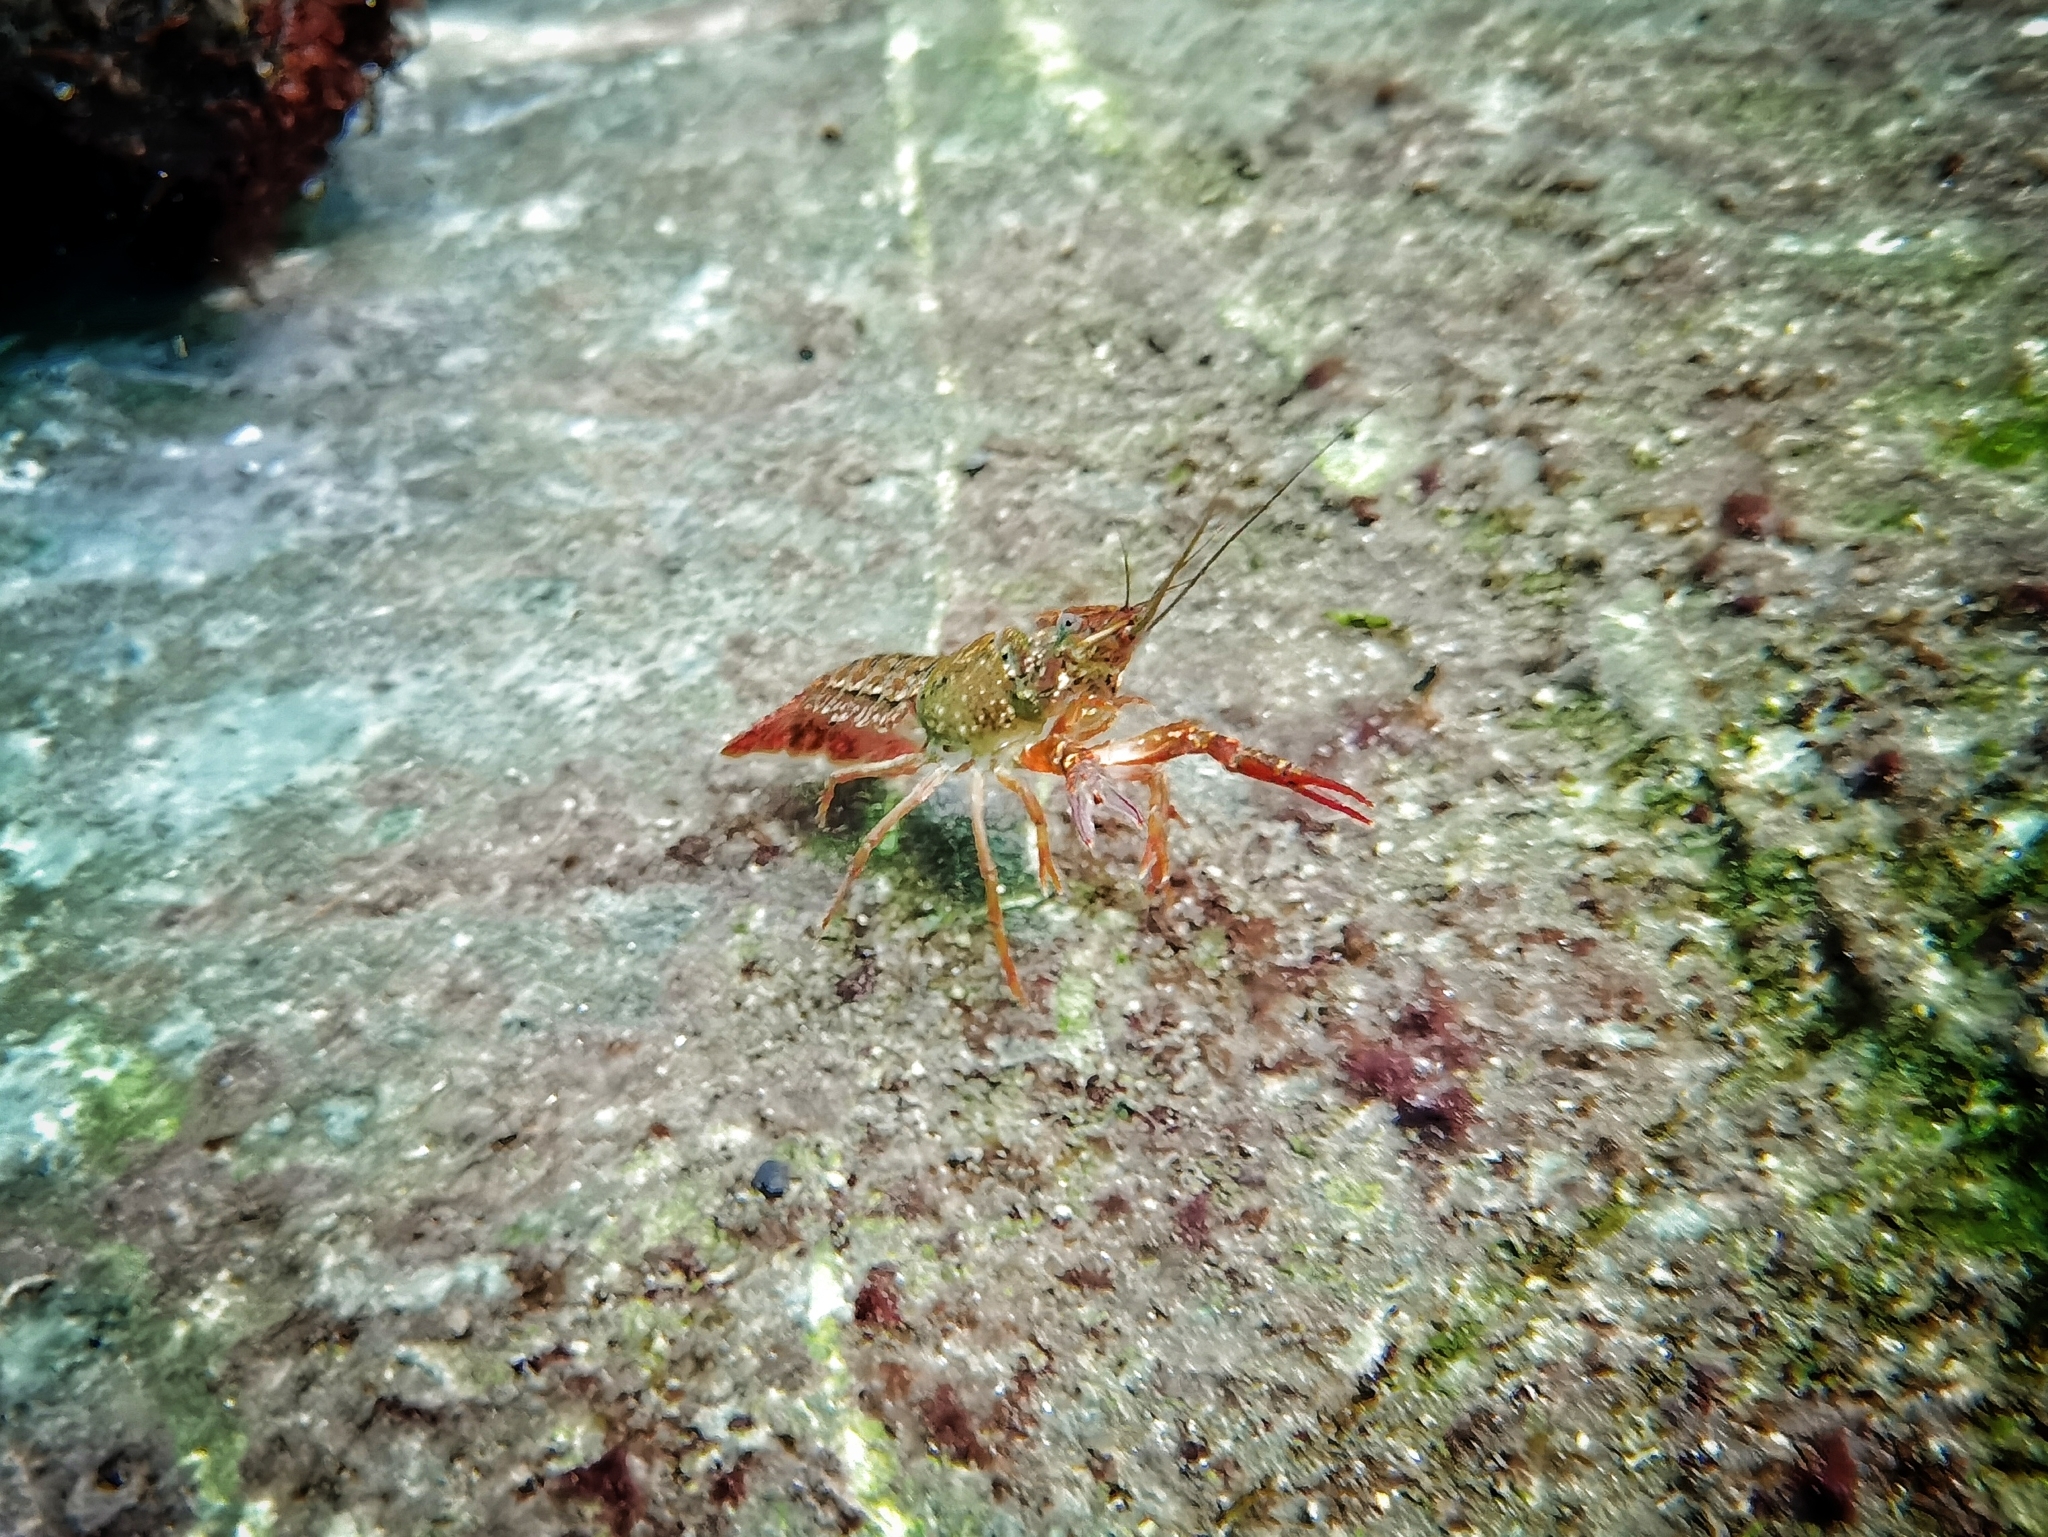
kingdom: Animalia
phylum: Arthropoda
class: Malacostraca
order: Decapoda
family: Cambaridae
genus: Procambarus
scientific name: Procambarus clarkii
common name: Red swamp crayfish
